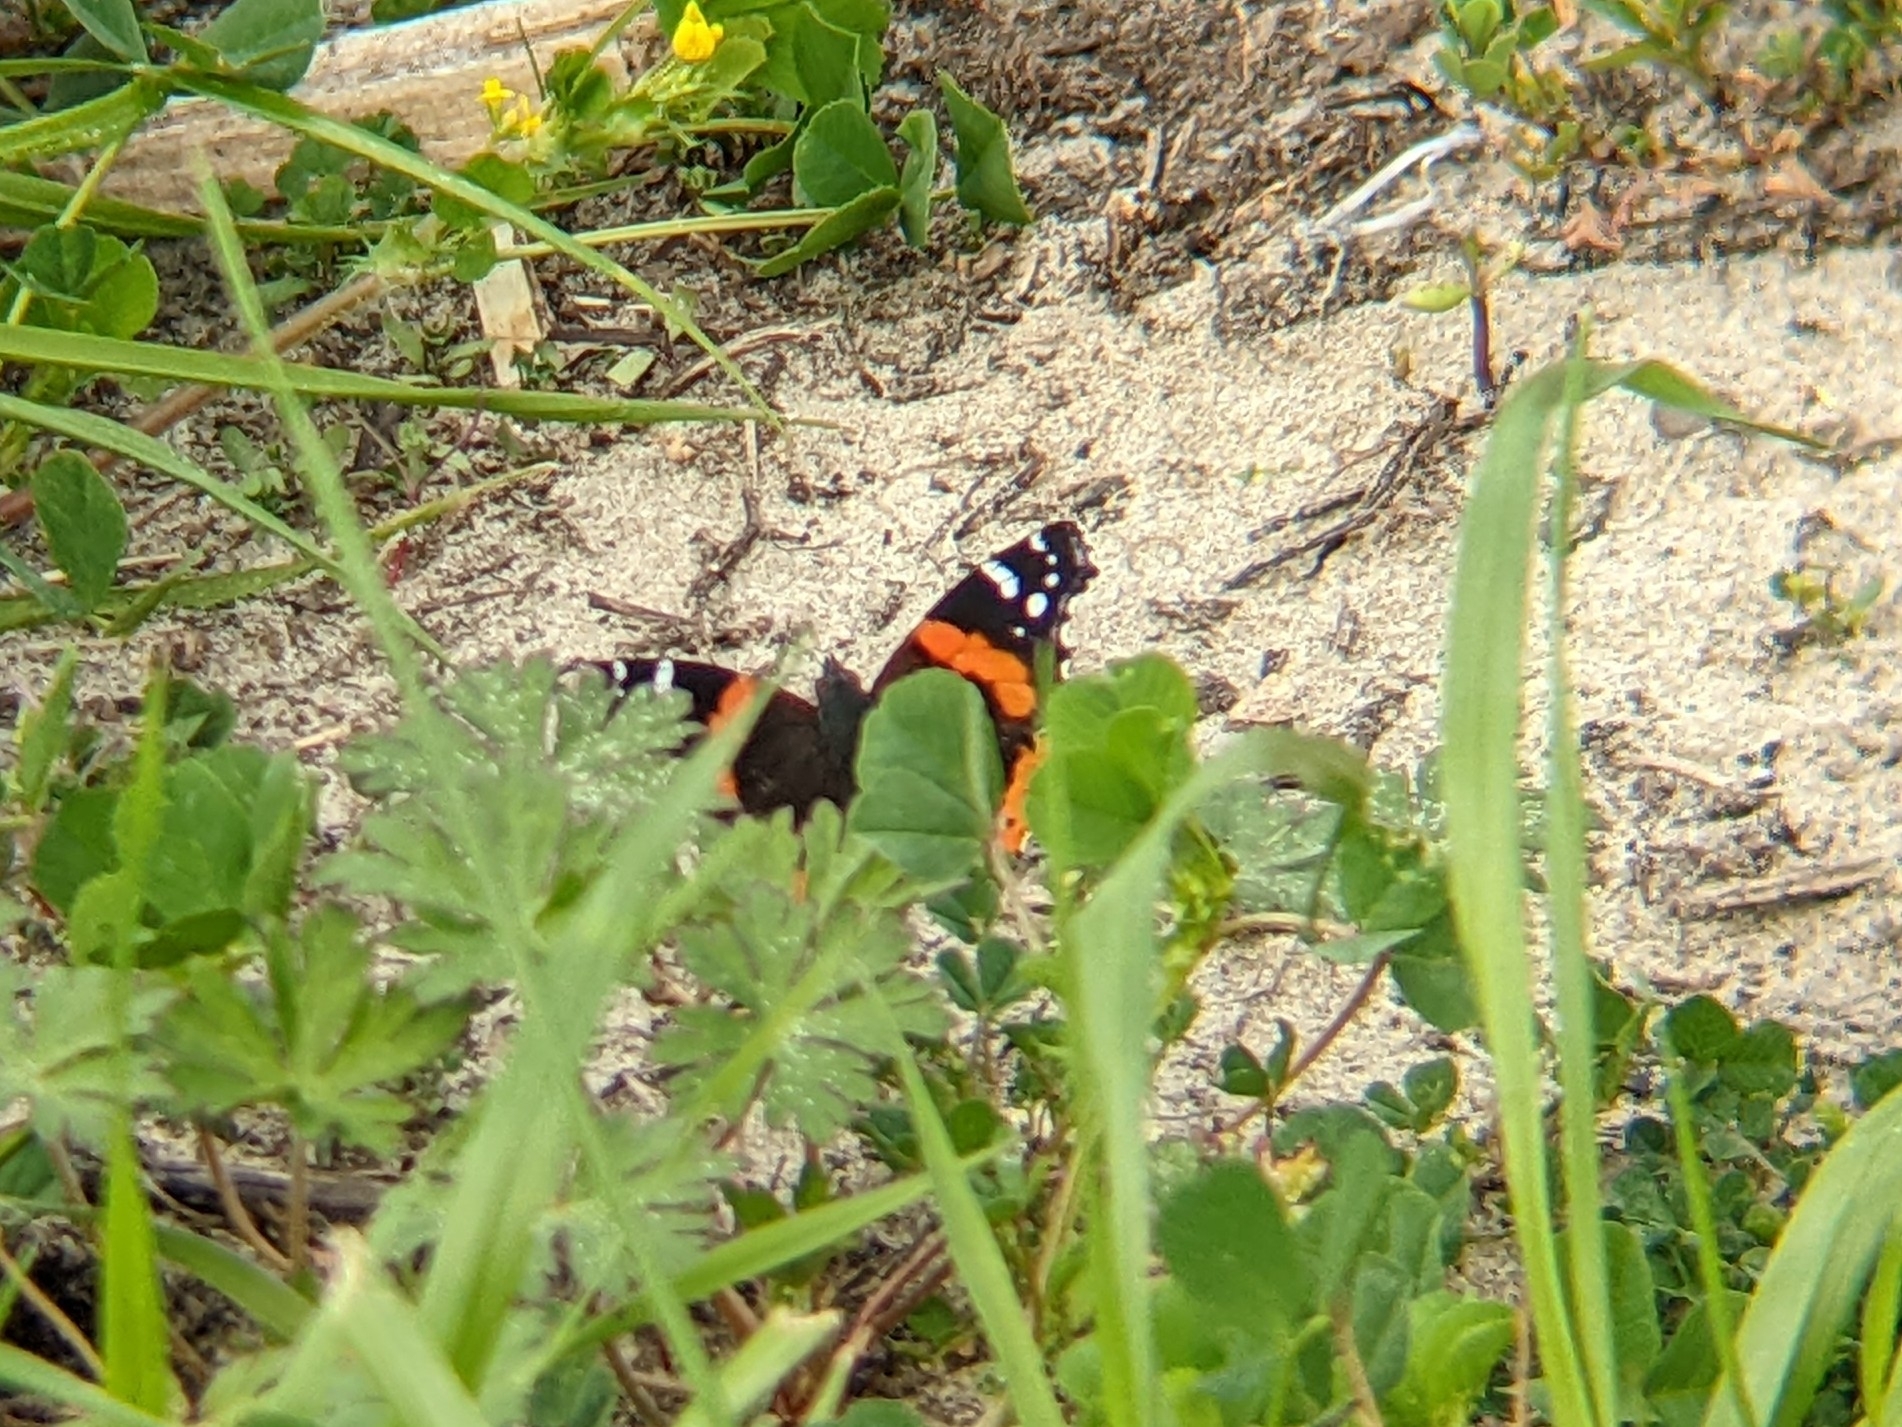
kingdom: Animalia
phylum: Arthropoda
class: Insecta
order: Lepidoptera
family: Nymphalidae
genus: Vanessa
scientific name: Vanessa atalanta
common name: Red admiral
